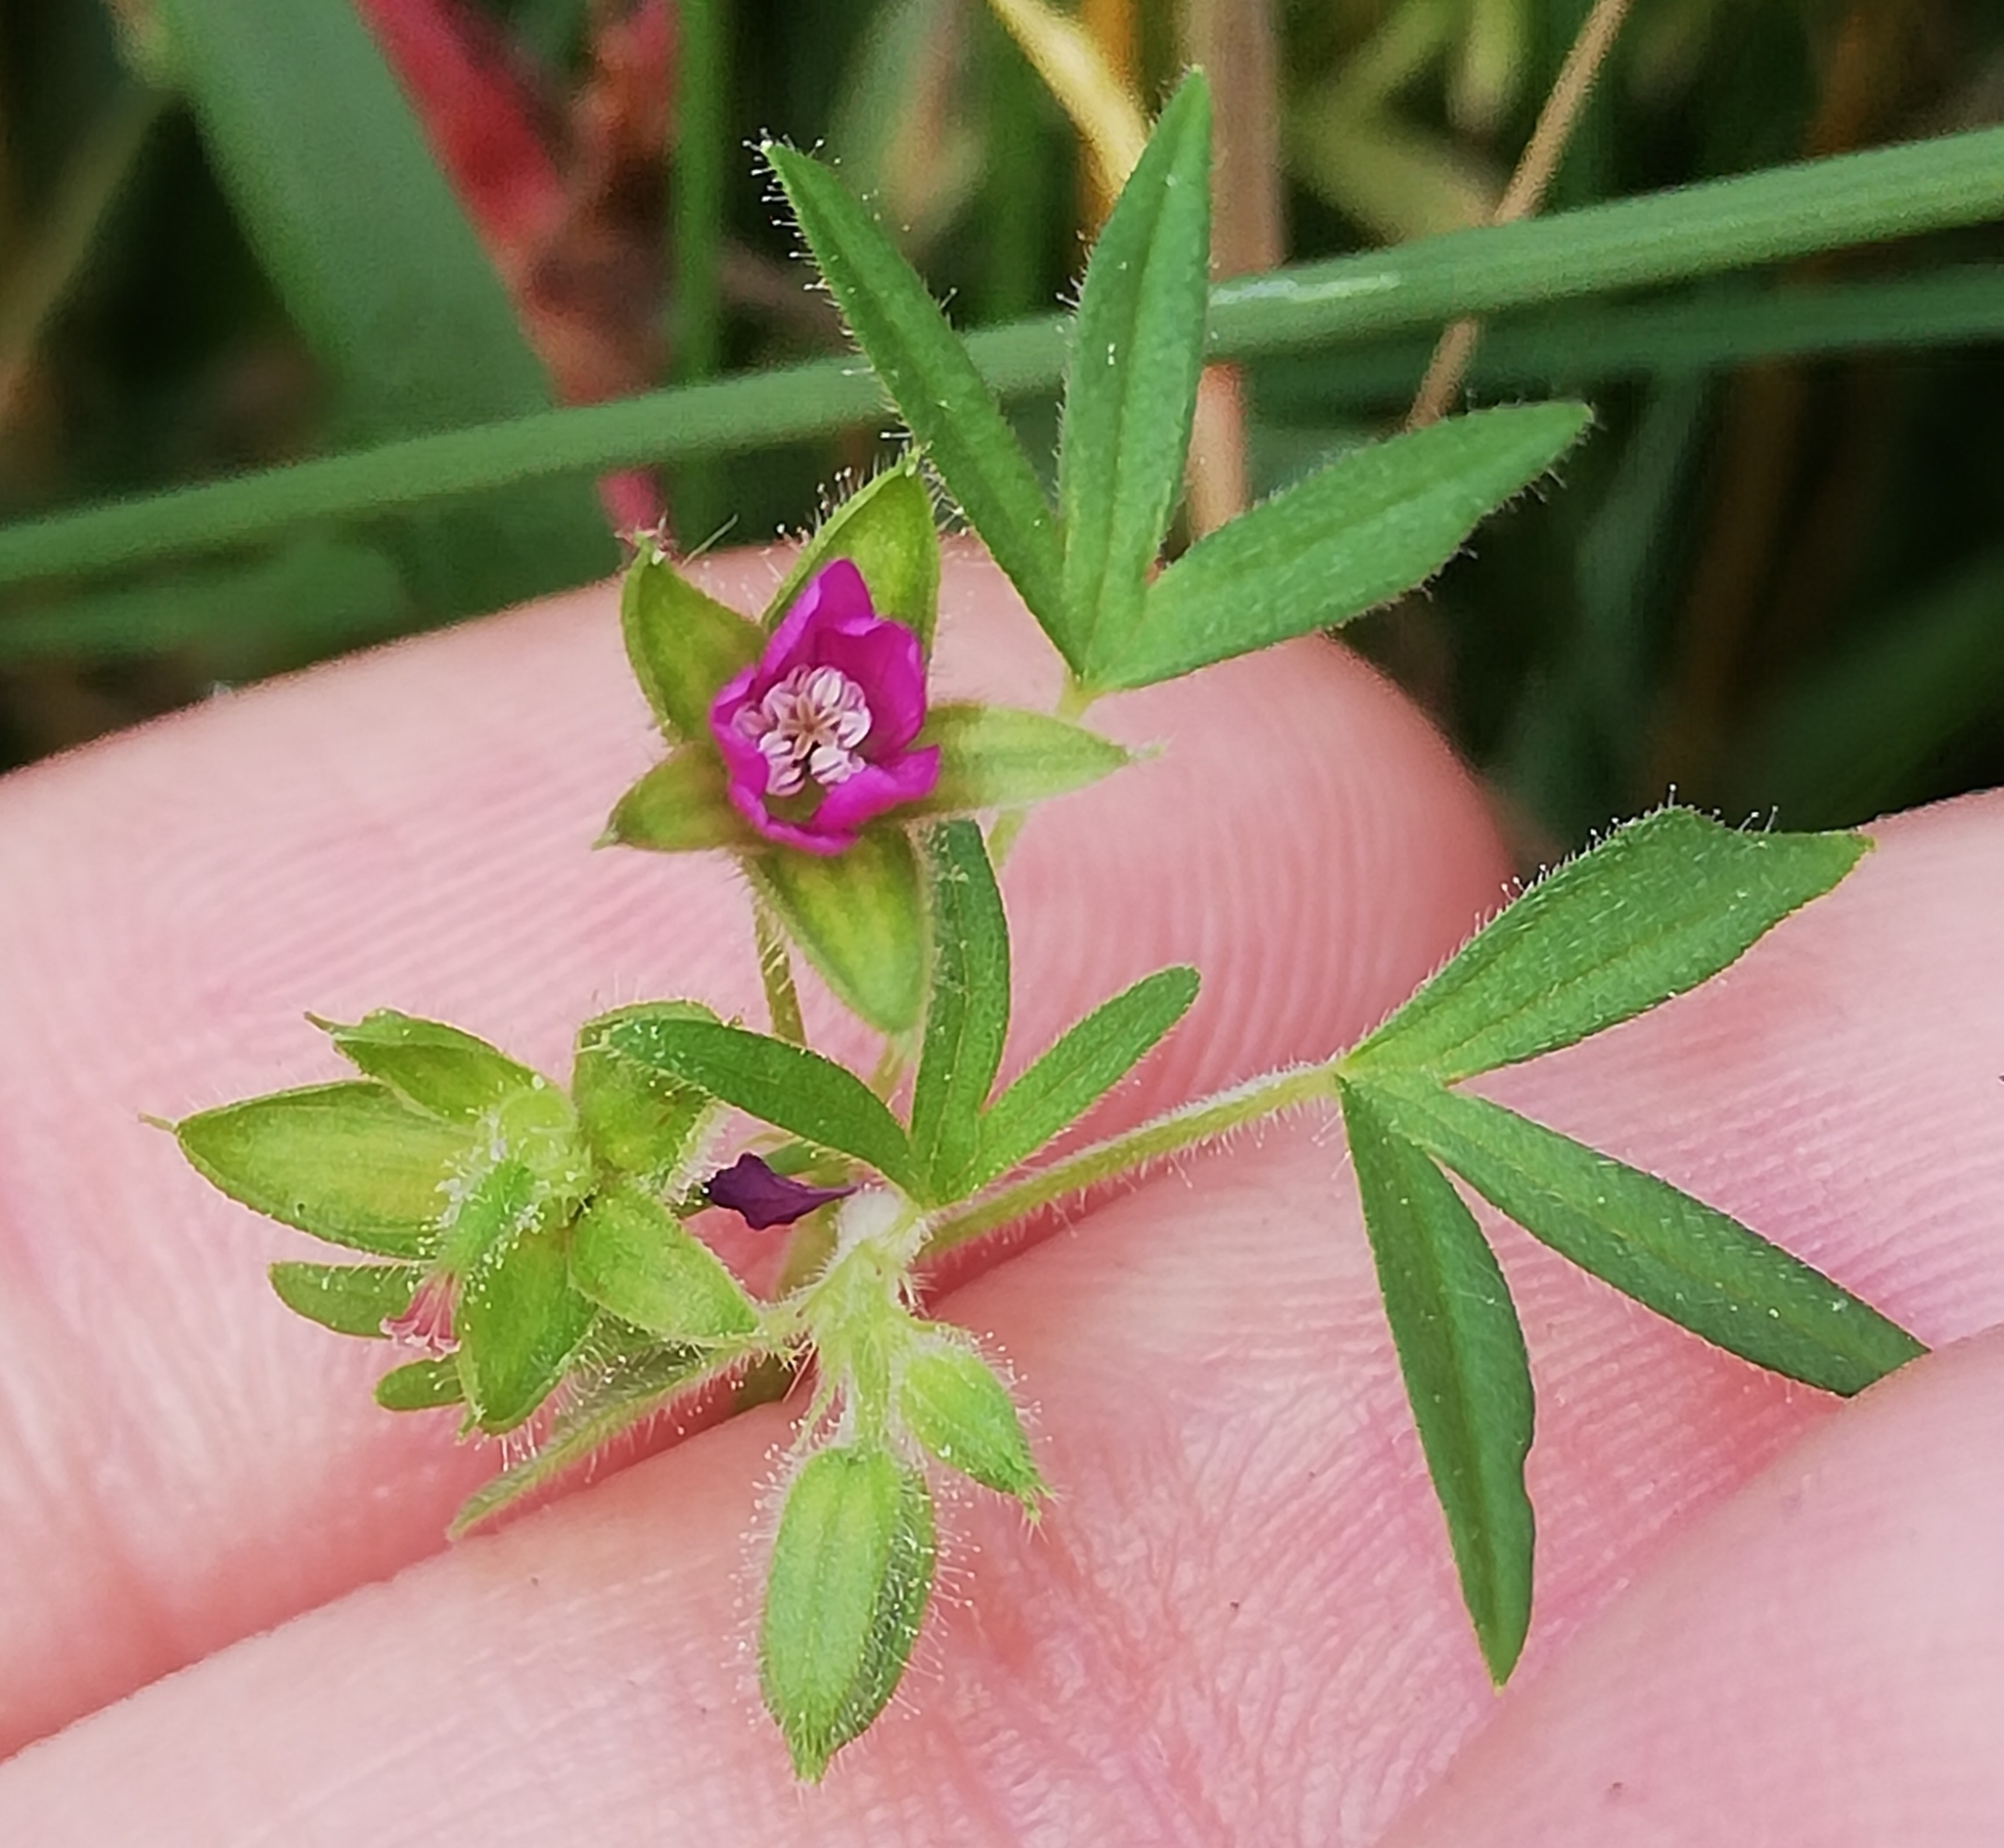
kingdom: Plantae
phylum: Tracheophyta
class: Magnoliopsida
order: Geraniales
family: Geraniaceae
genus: Geranium
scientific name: Geranium dissectum
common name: Cut-leaved crane's-bill
